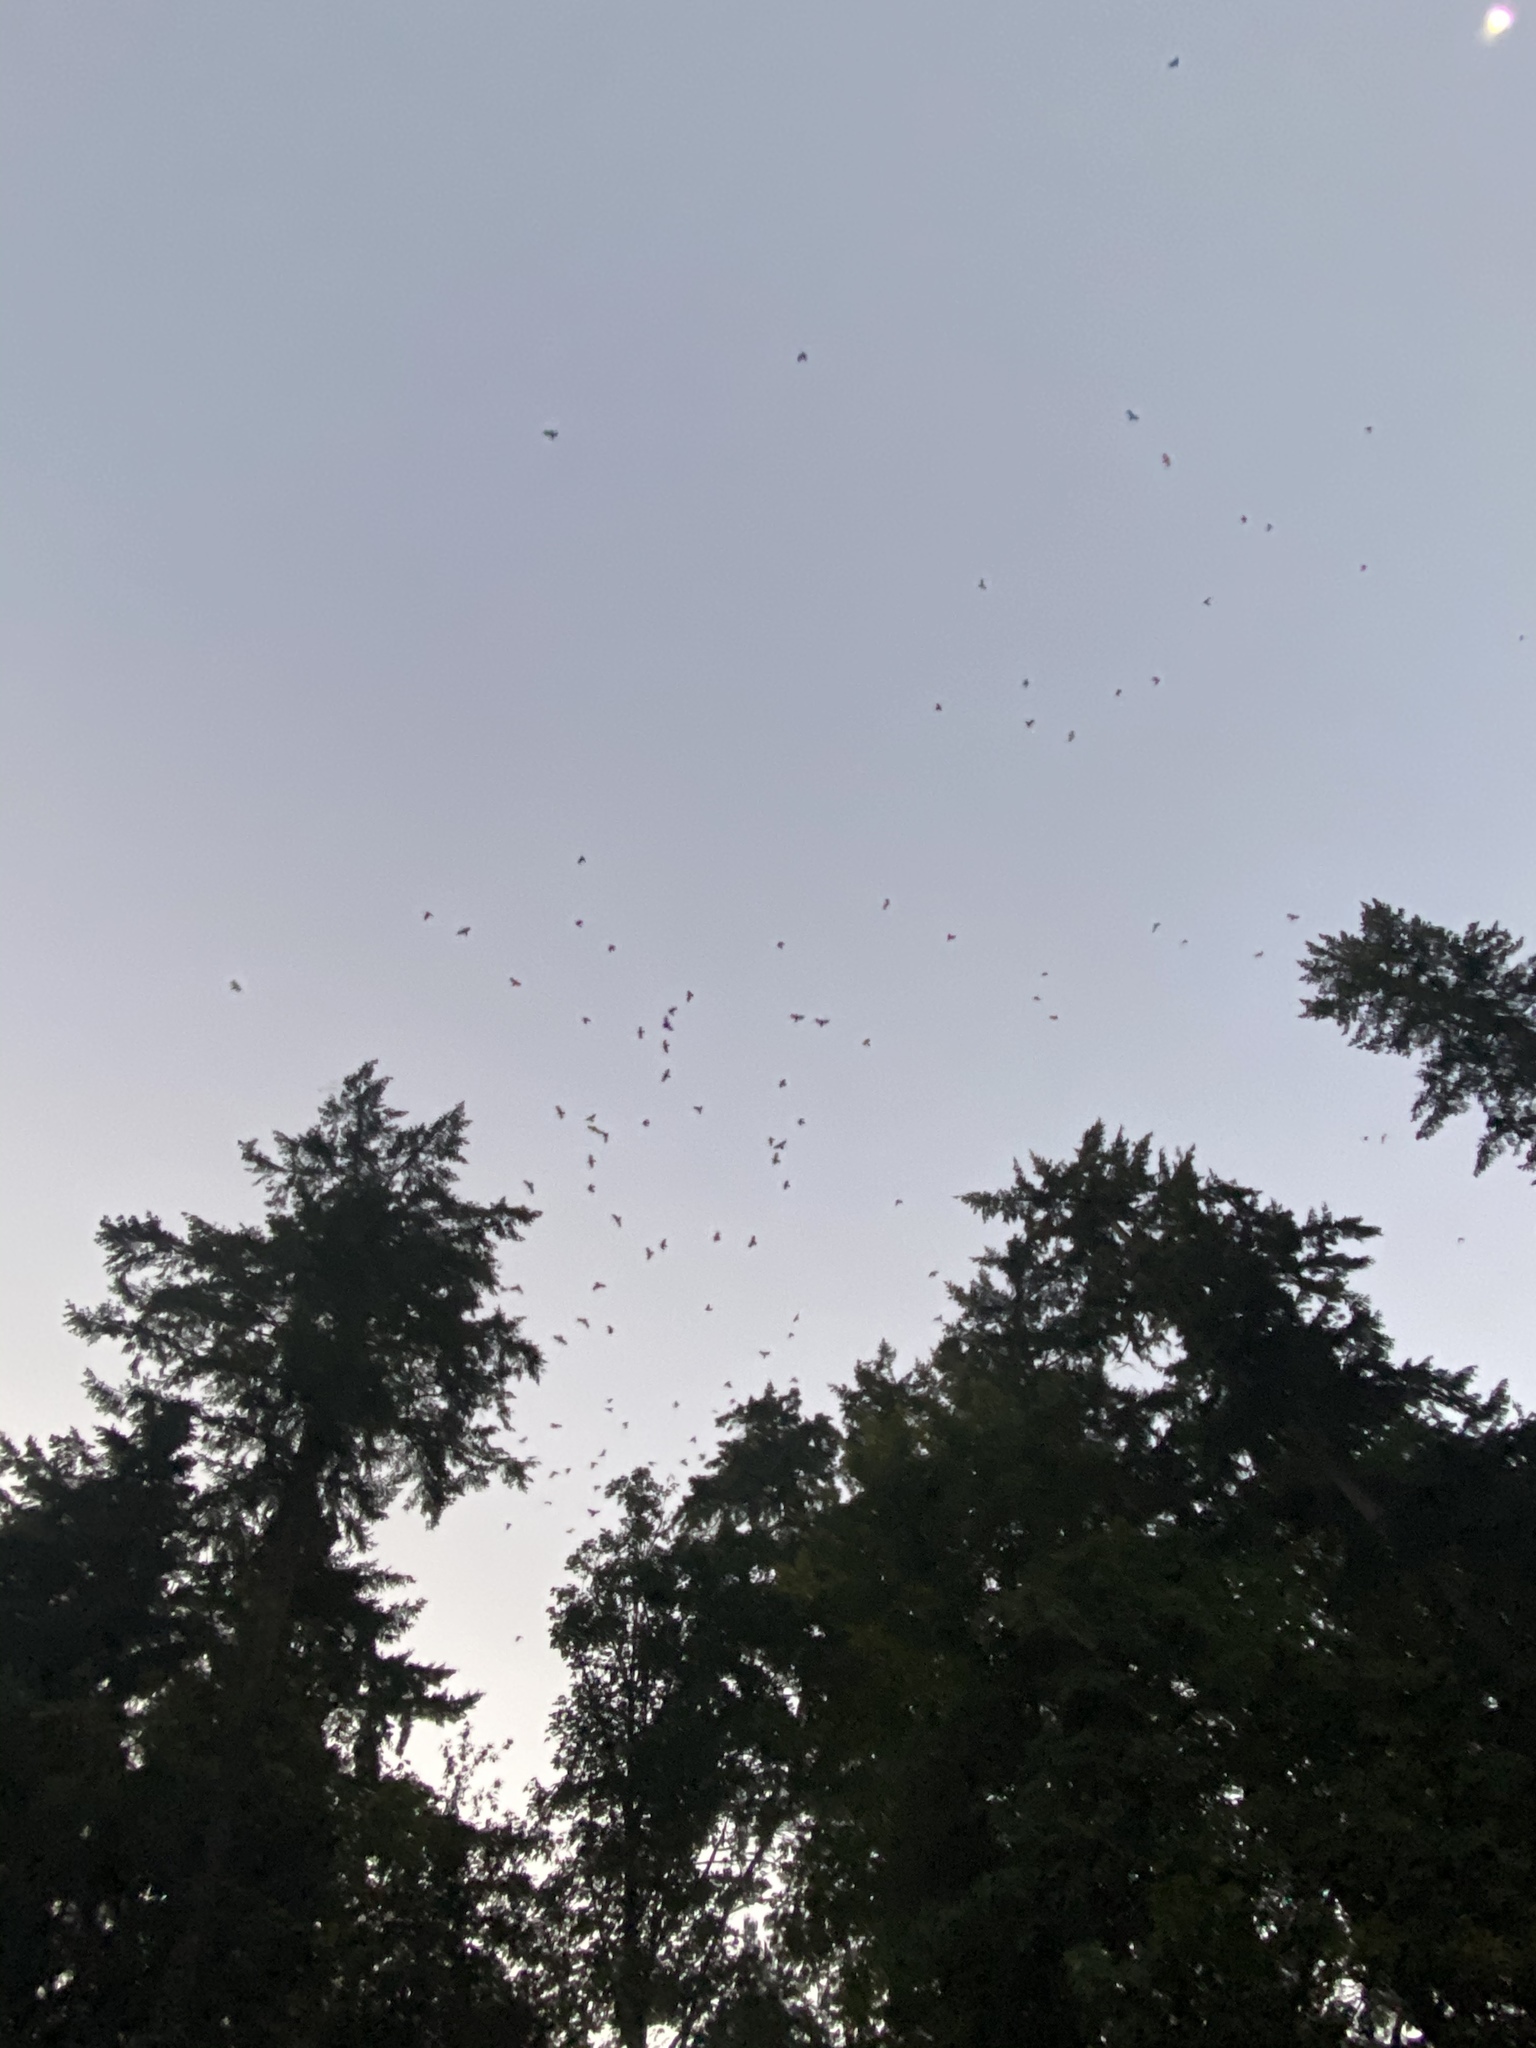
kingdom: Animalia
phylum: Chordata
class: Aves
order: Passeriformes
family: Corvidae
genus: Corvus
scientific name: Corvus brachyrhynchos
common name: American crow
